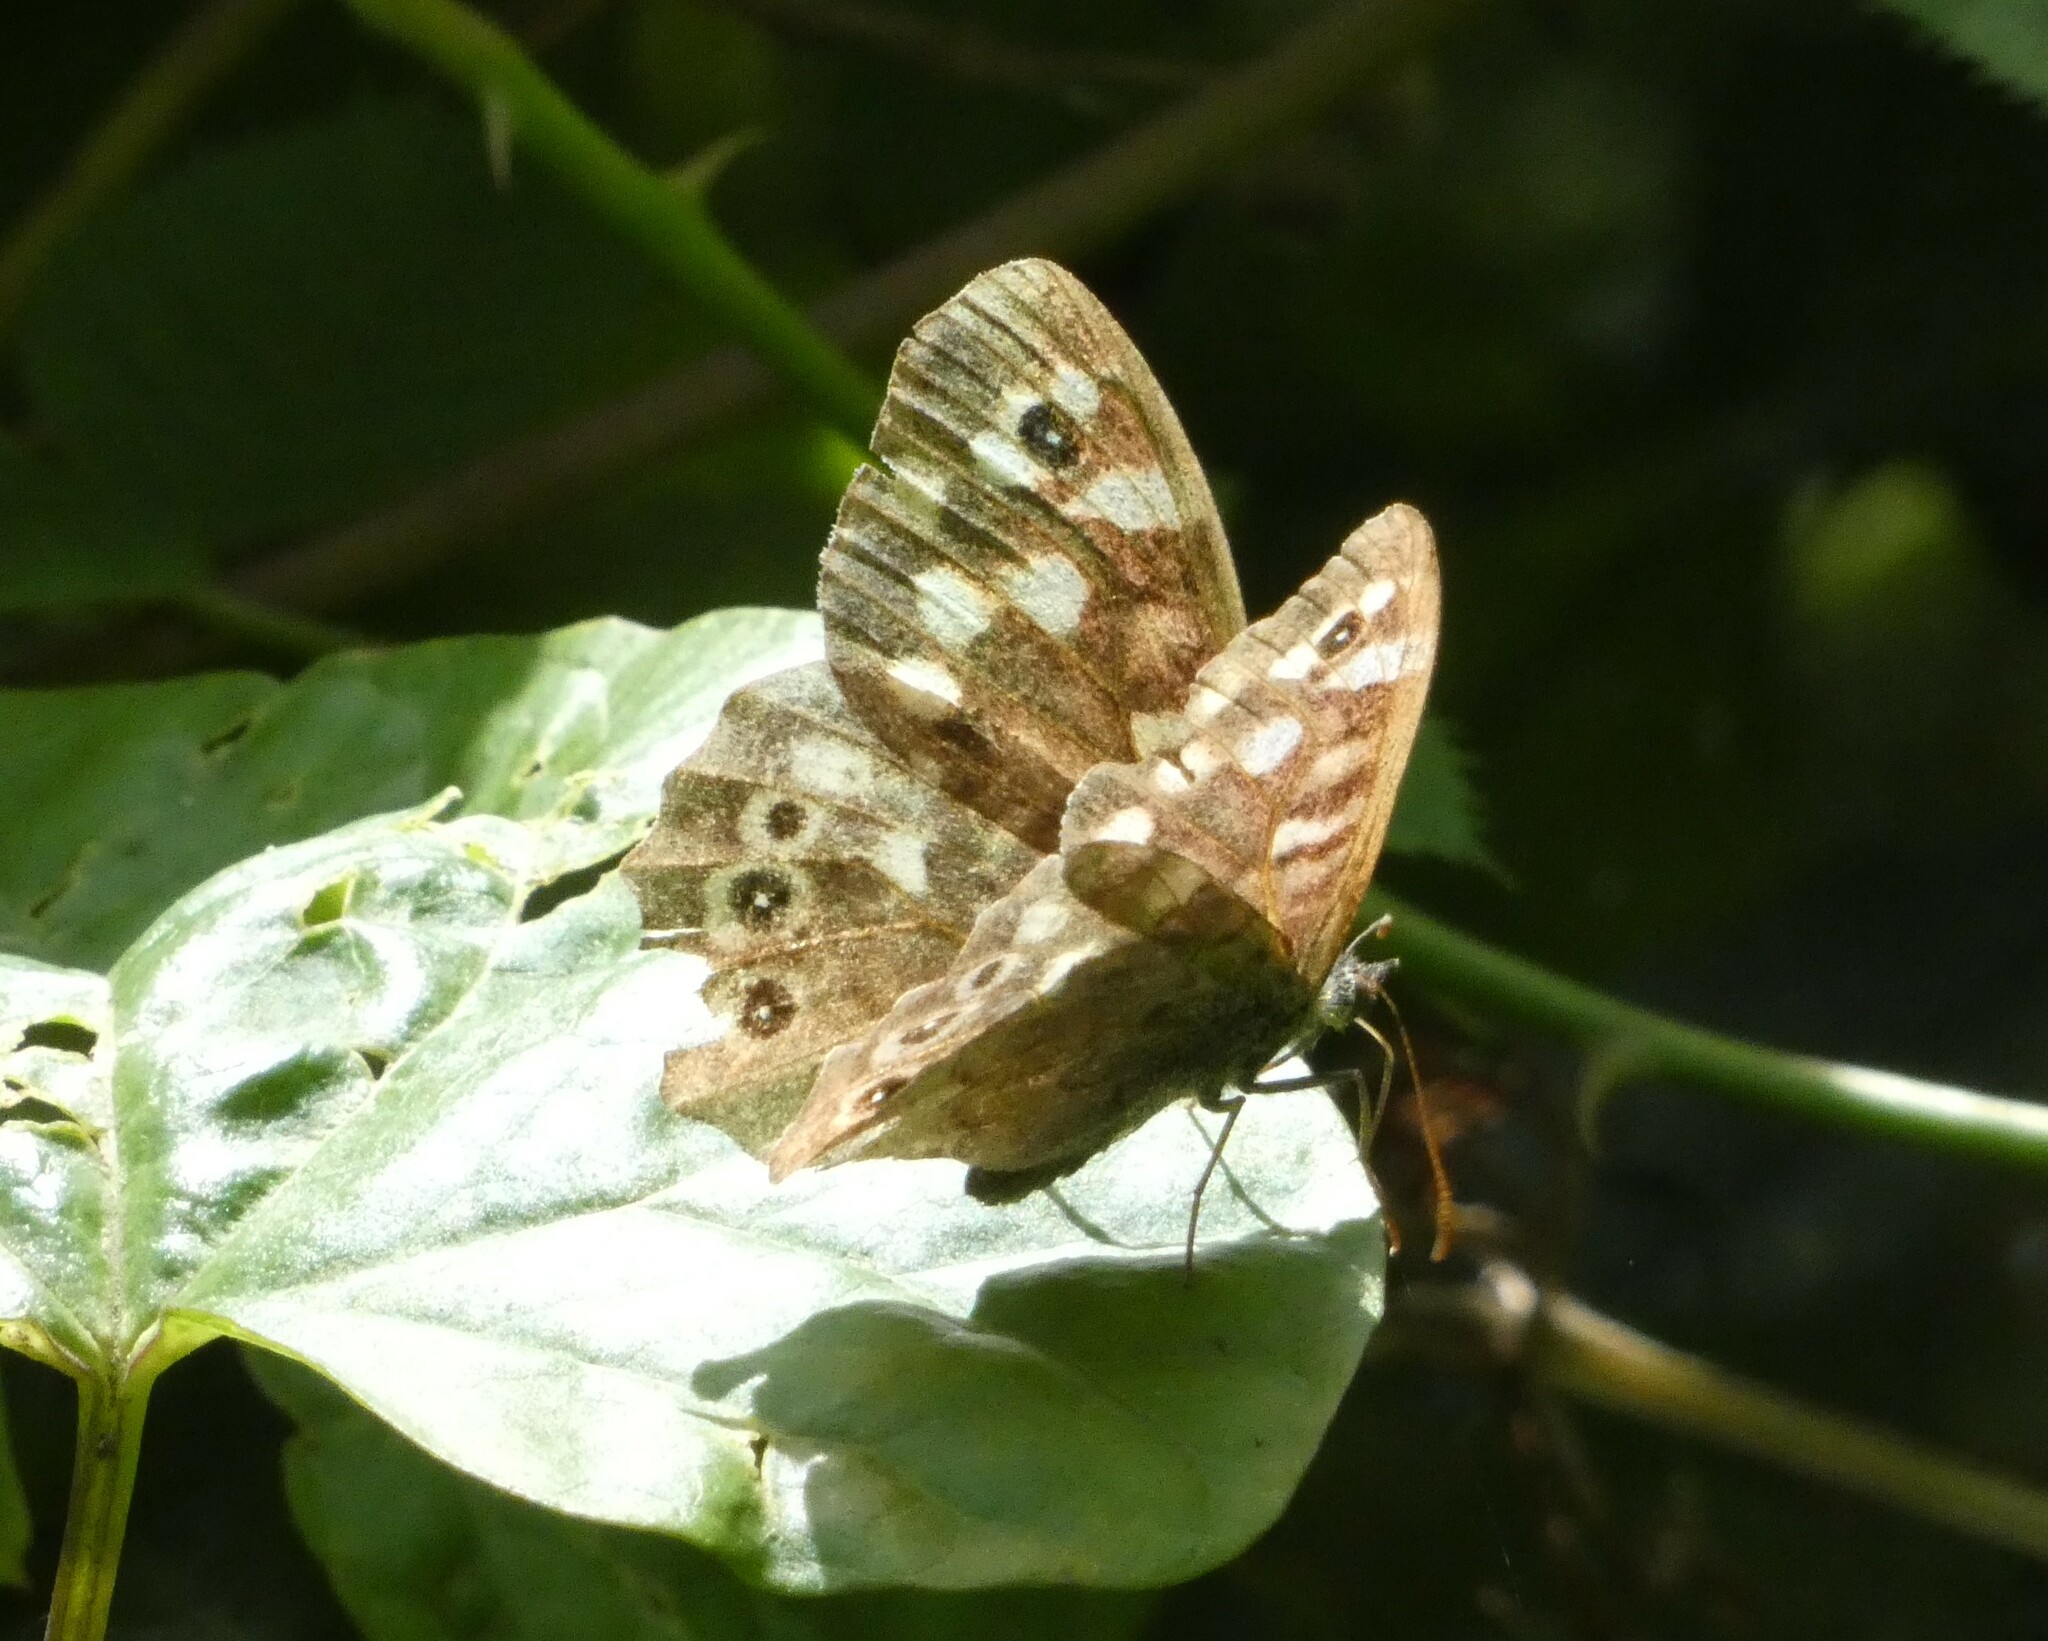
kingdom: Animalia
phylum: Arthropoda
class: Insecta
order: Lepidoptera
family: Nymphalidae
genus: Pararge
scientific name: Pararge aegeria
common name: Speckled wood
